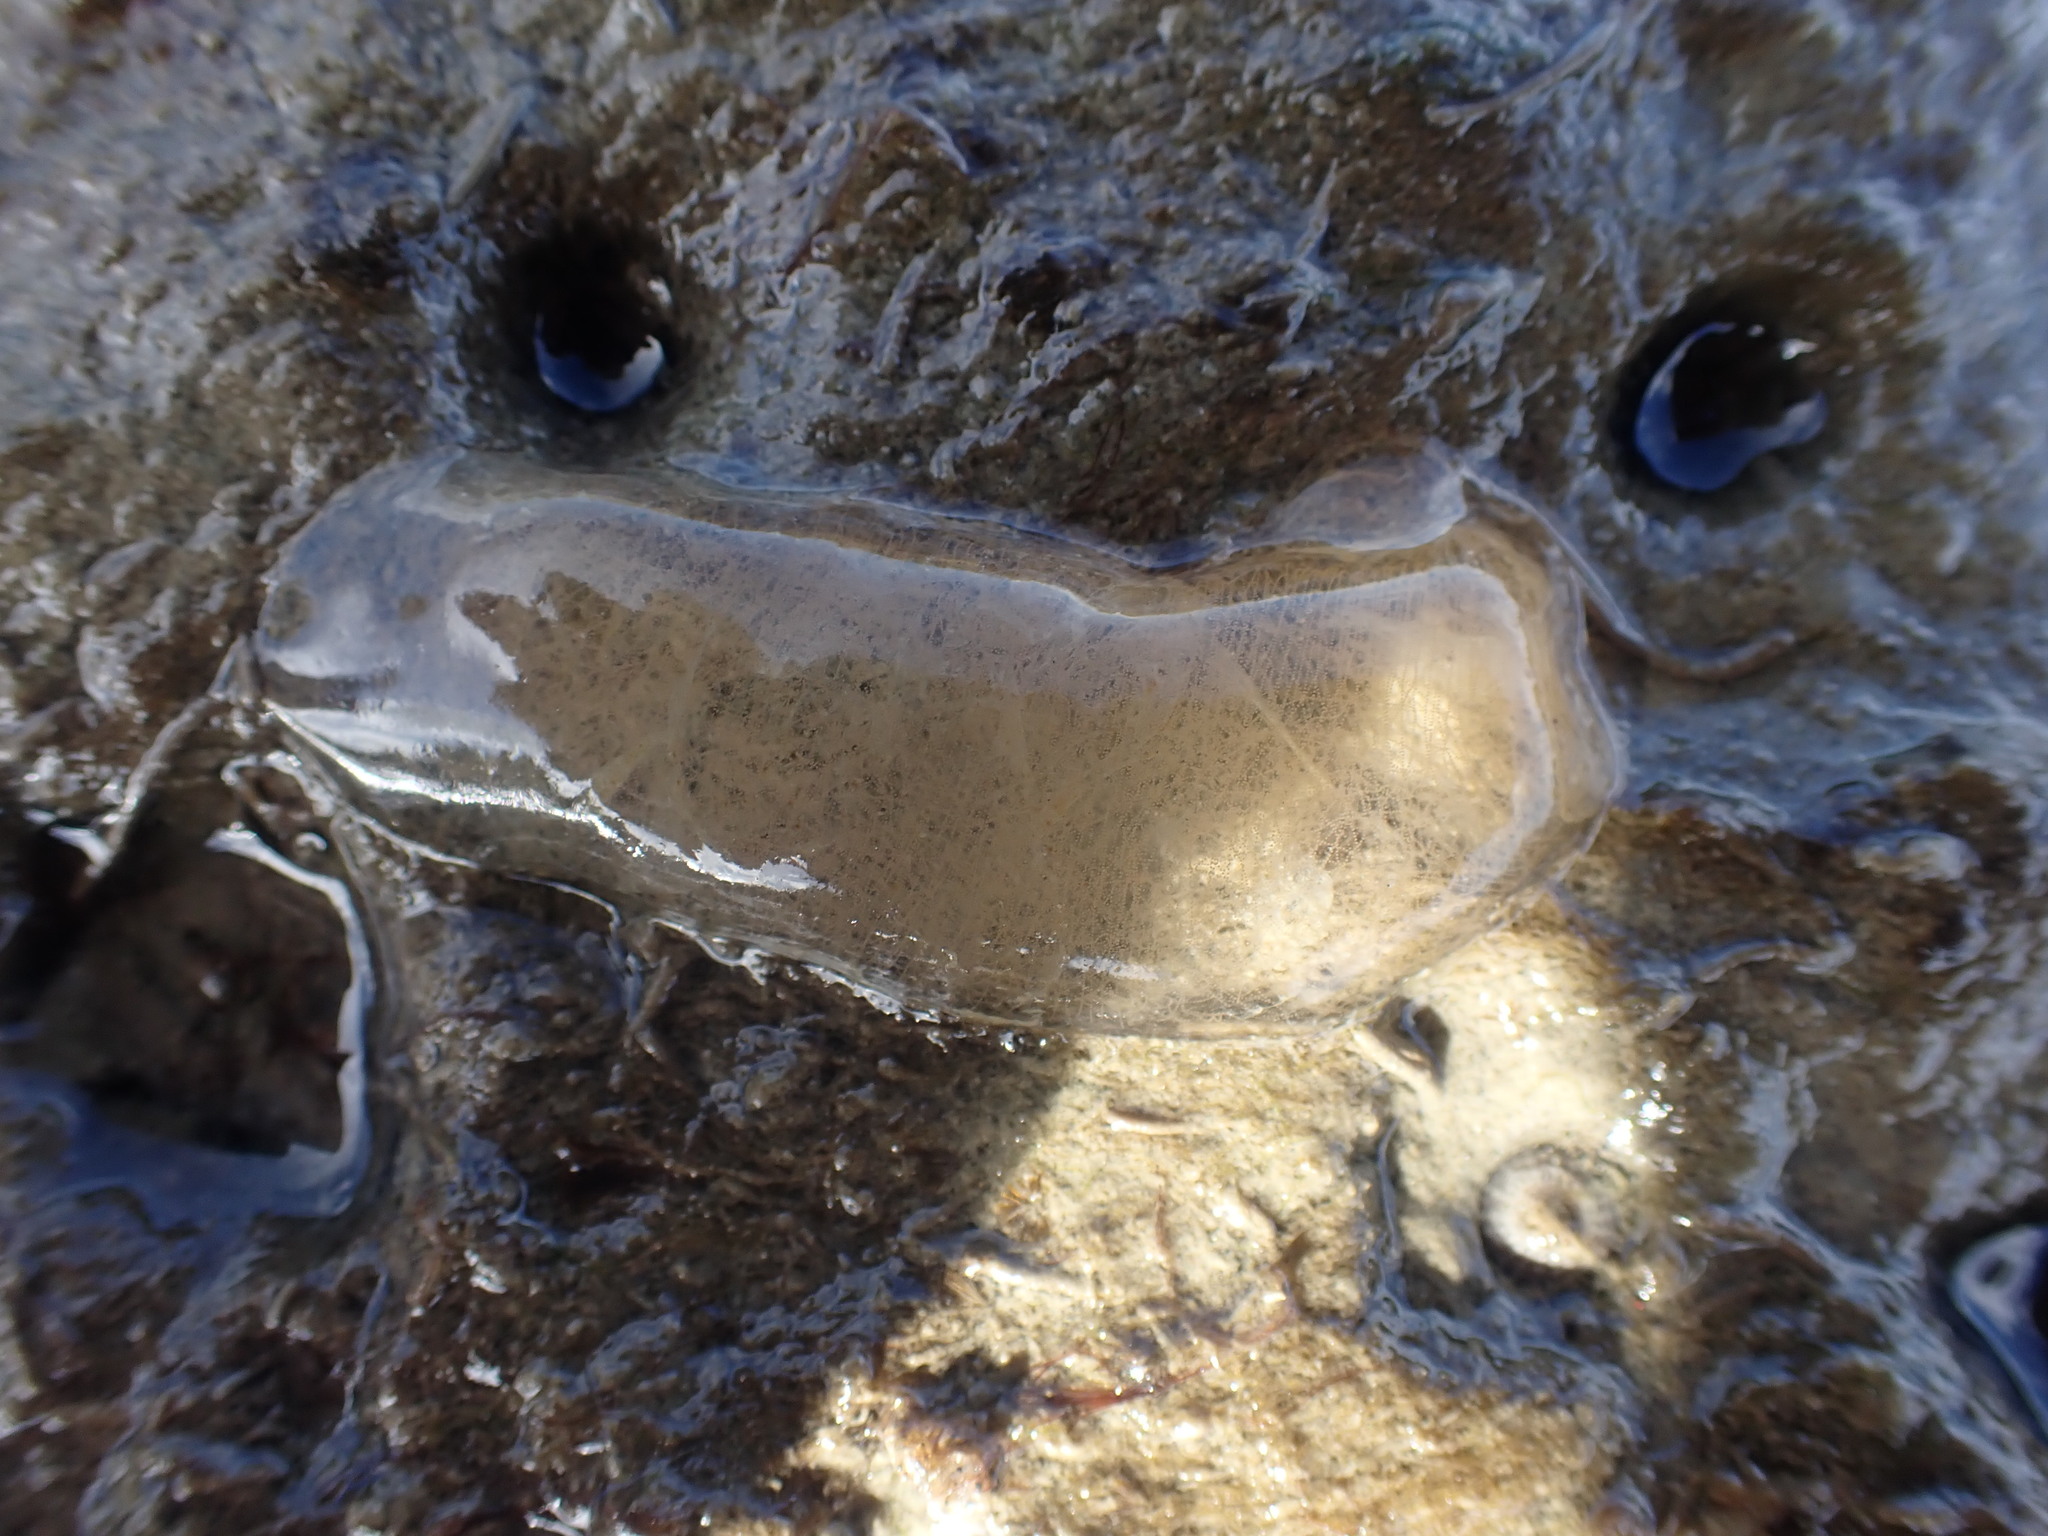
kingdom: Animalia
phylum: Mollusca
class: Gastropoda
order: Cephalaspidea
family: Philinidae
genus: Philine
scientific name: Philine
